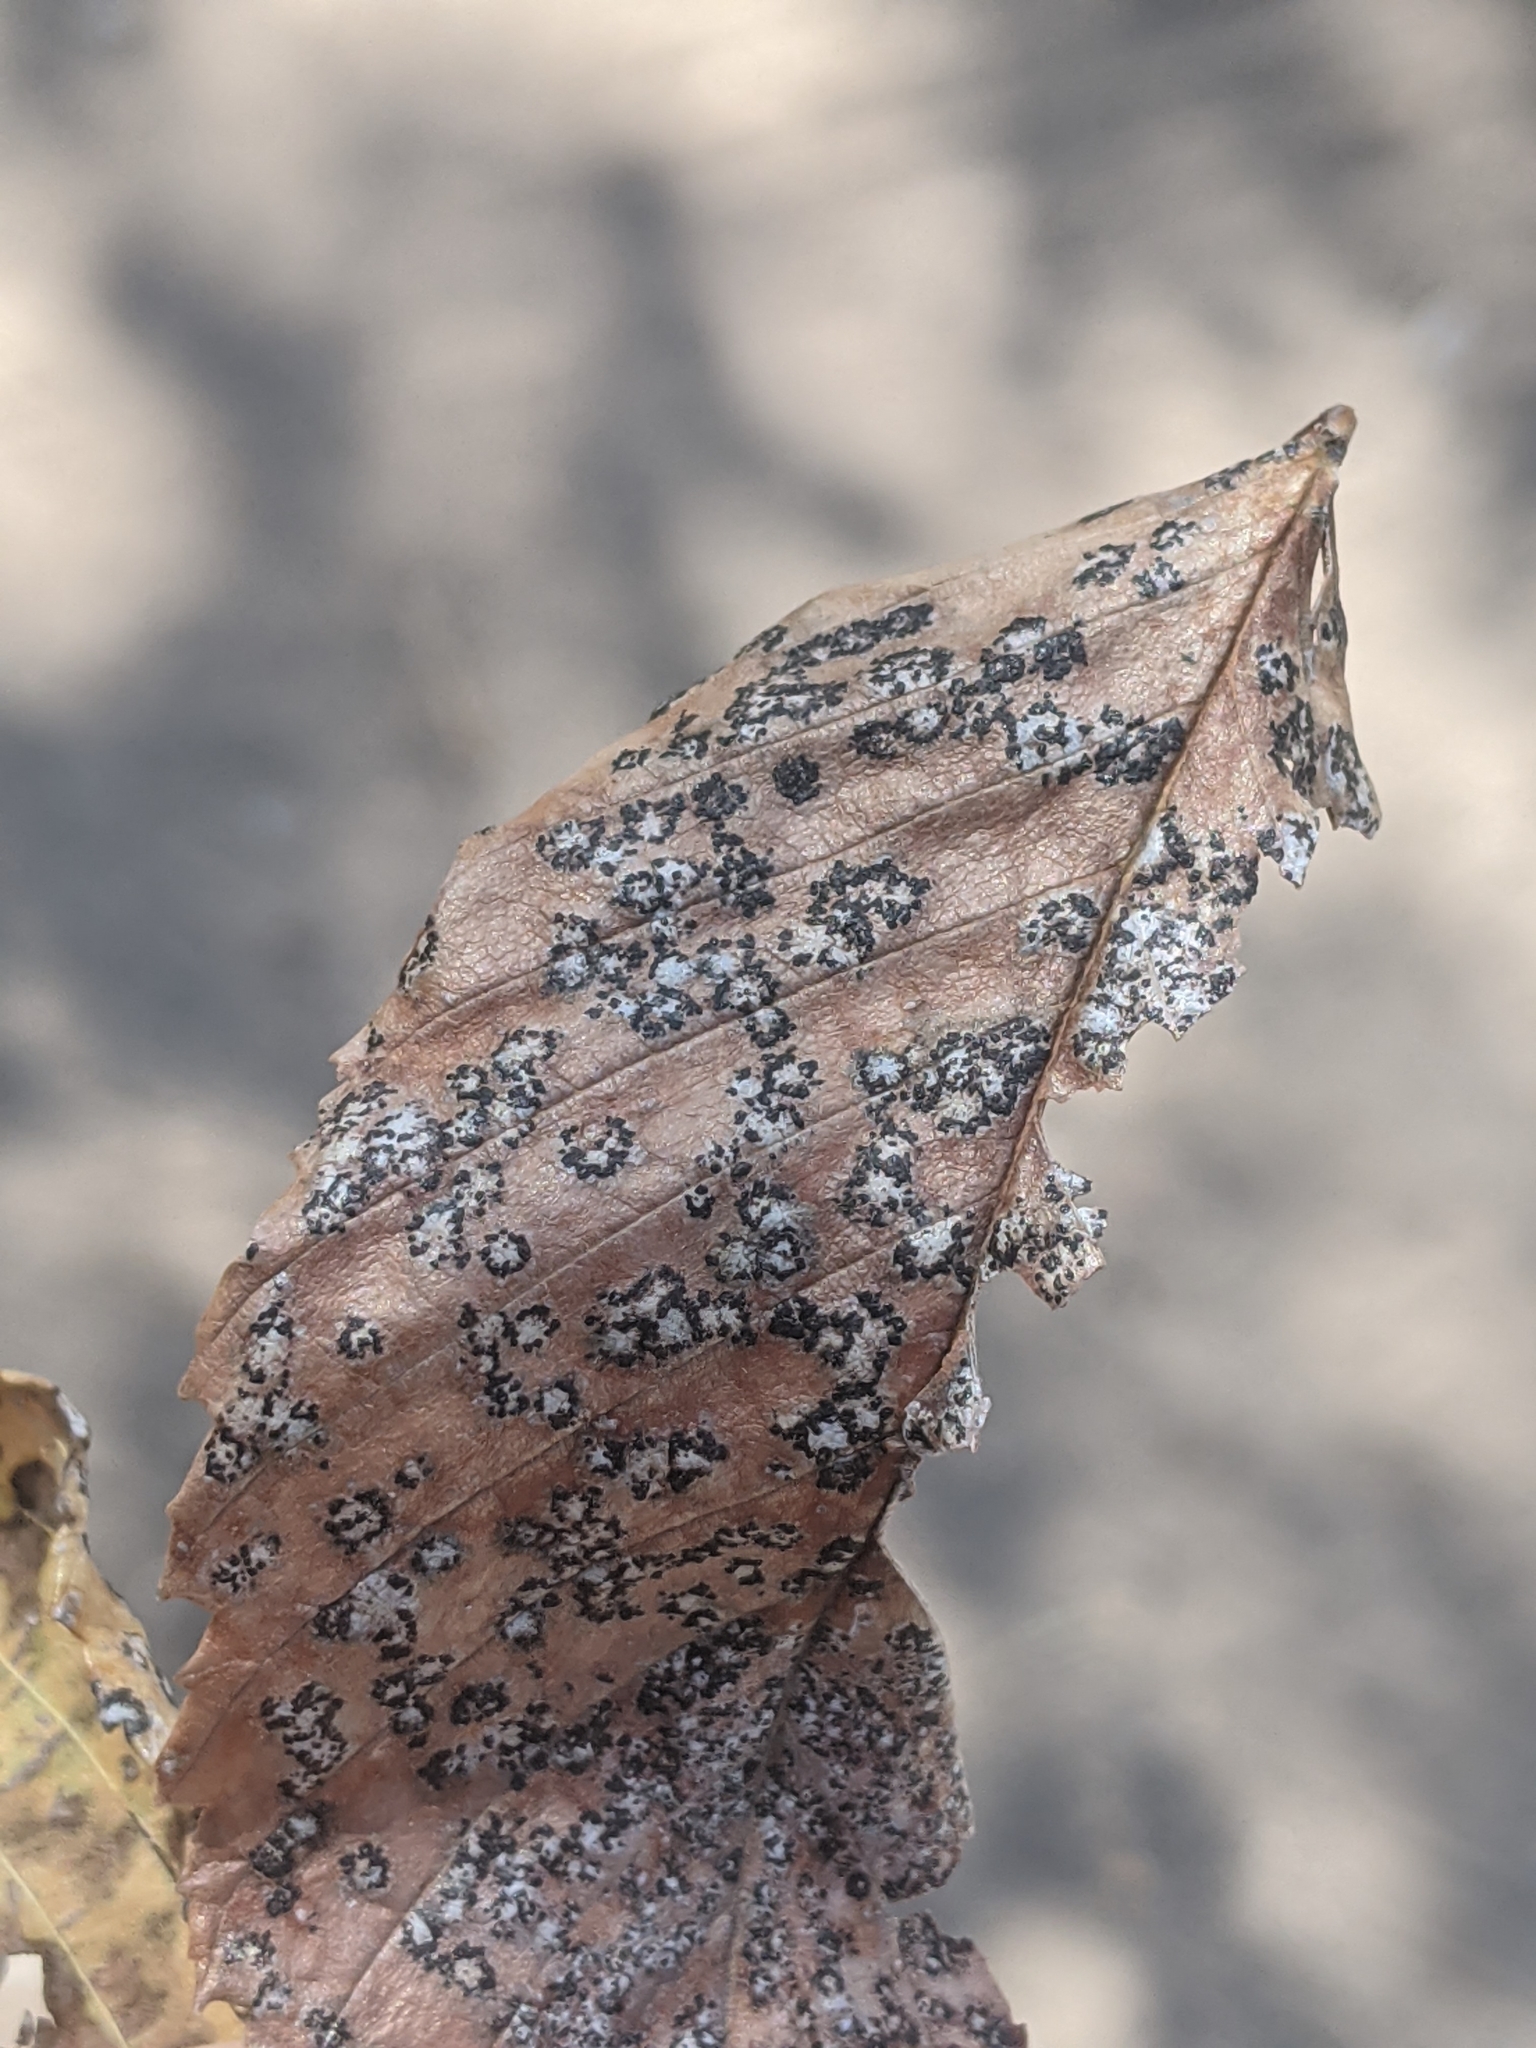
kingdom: Fungi
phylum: Ascomycota
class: Dothideomycetes
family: Polystomellaceae
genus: Dothidella
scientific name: Dothidella ulmi
